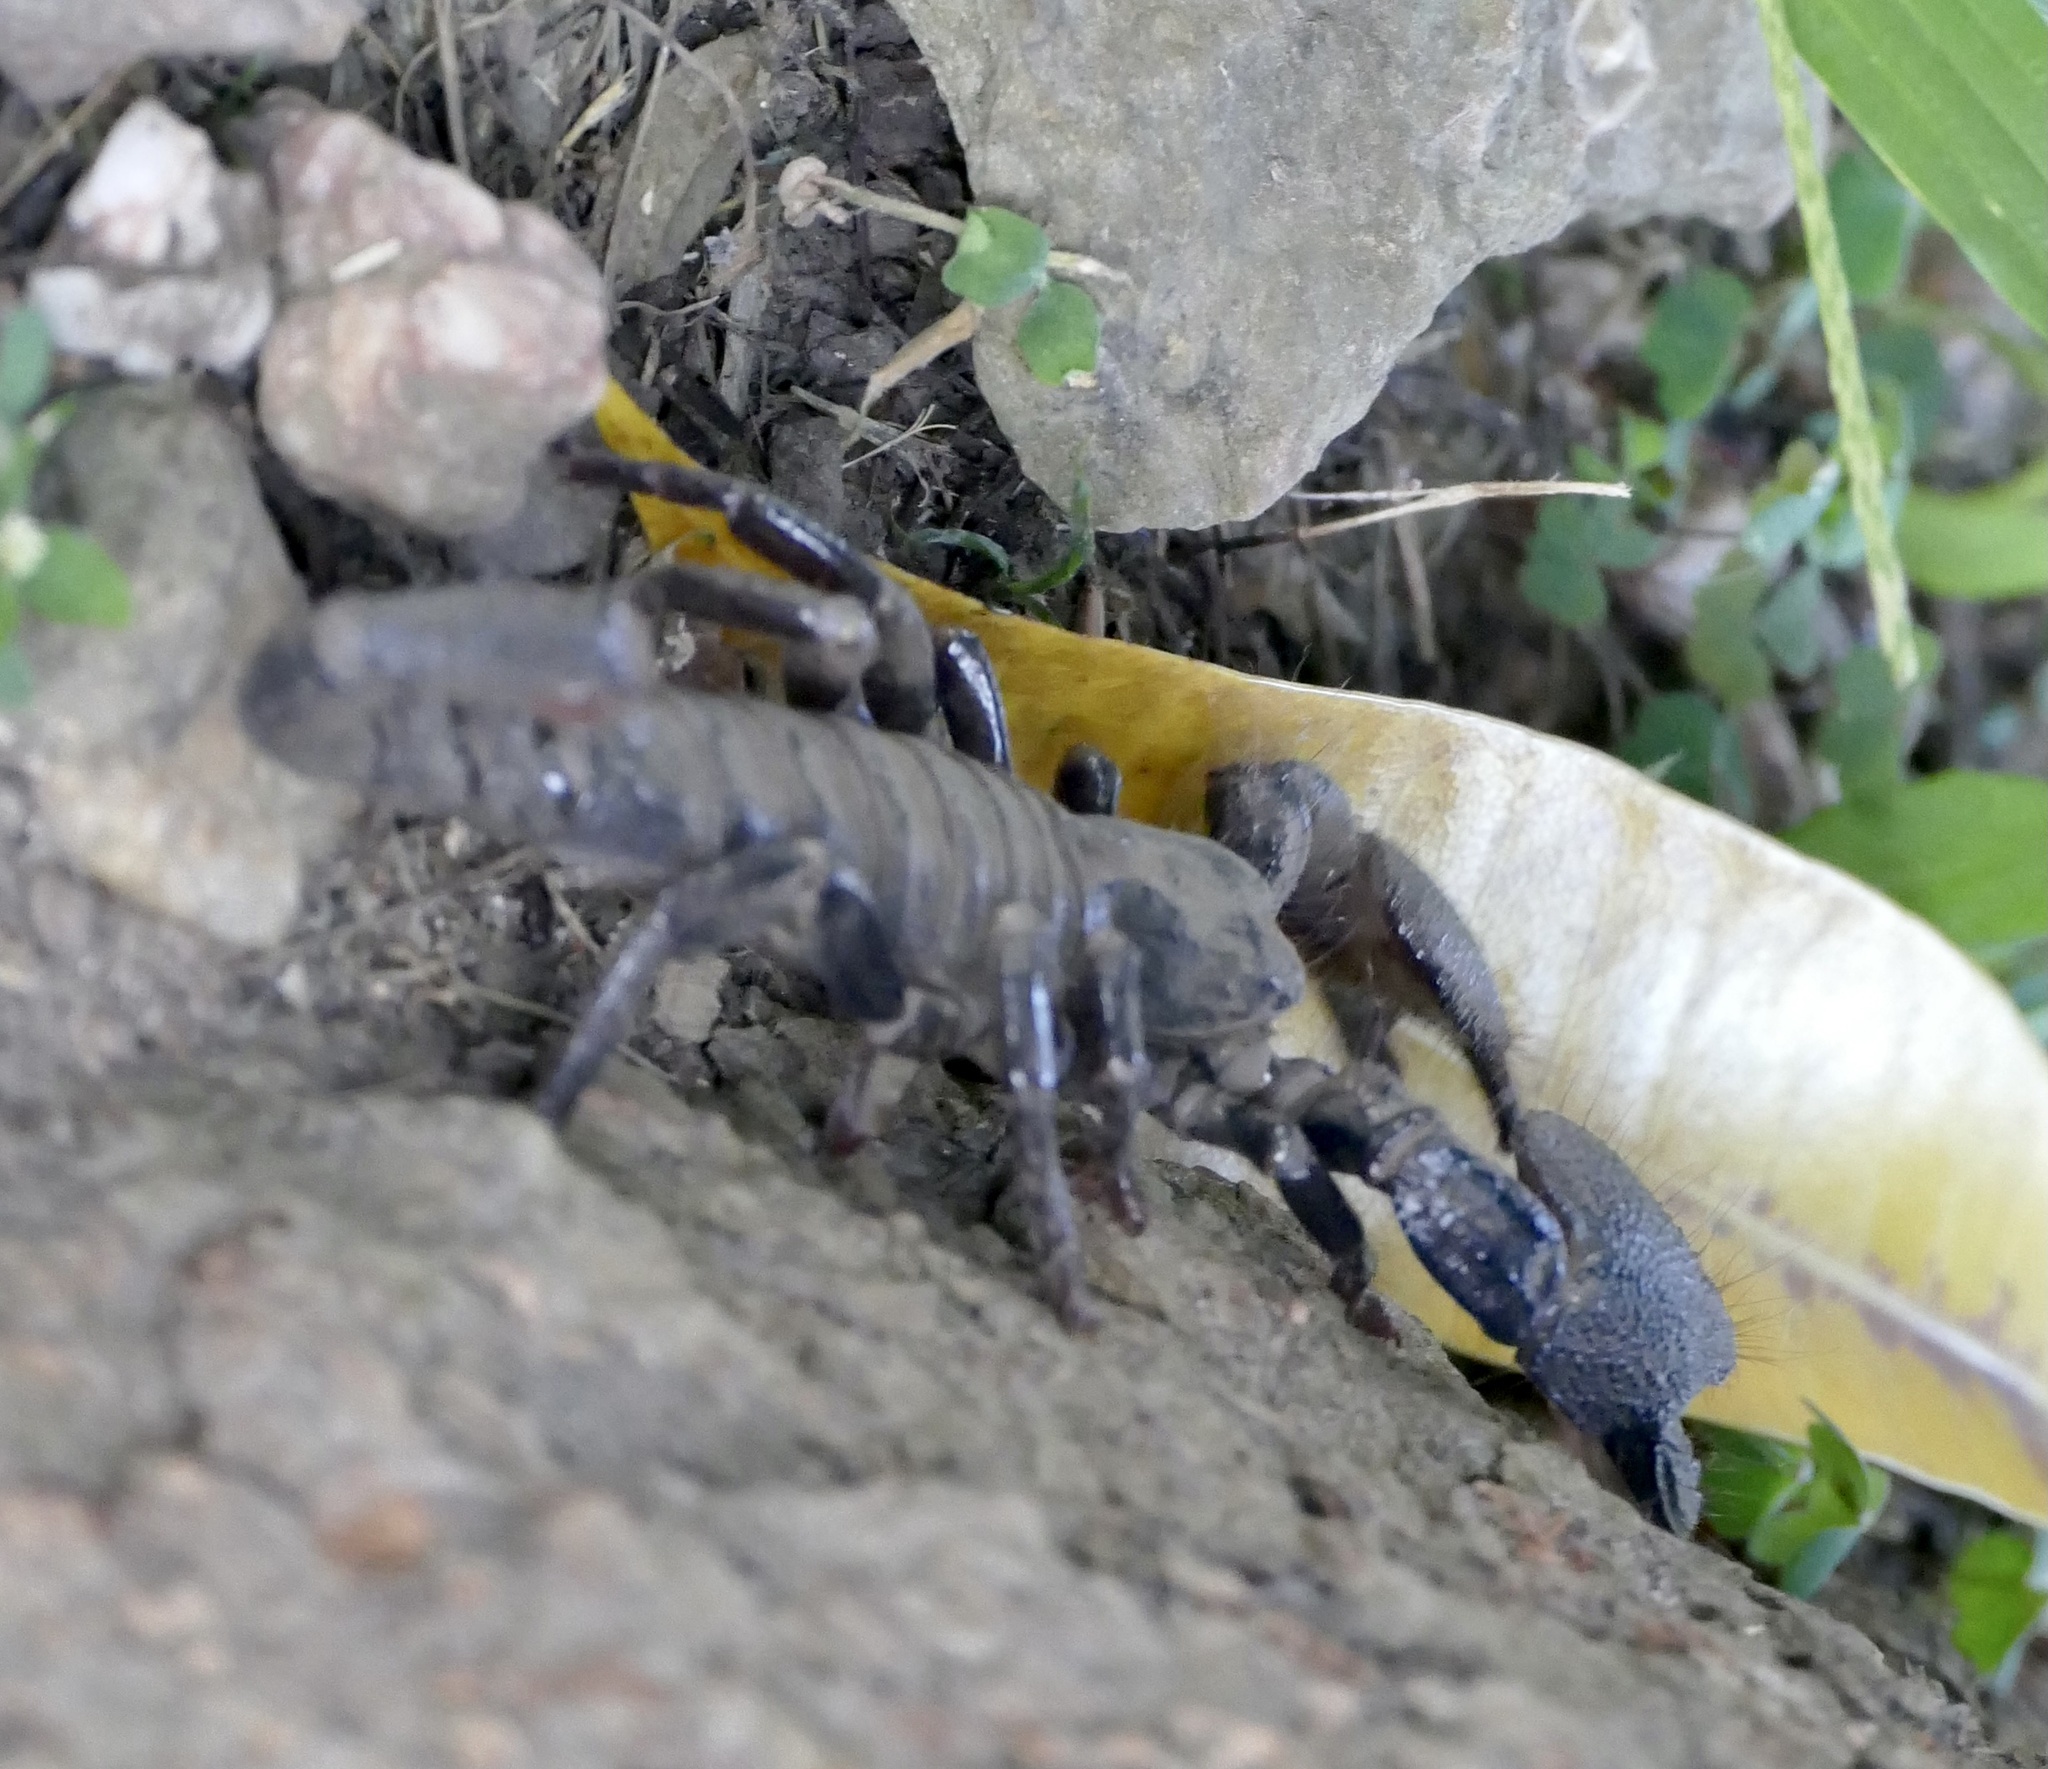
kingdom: Animalia
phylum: Arthropoda
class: Arachnida
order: Scorpiones
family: Scorpionidae
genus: Pandinus
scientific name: Pandinus imperator
